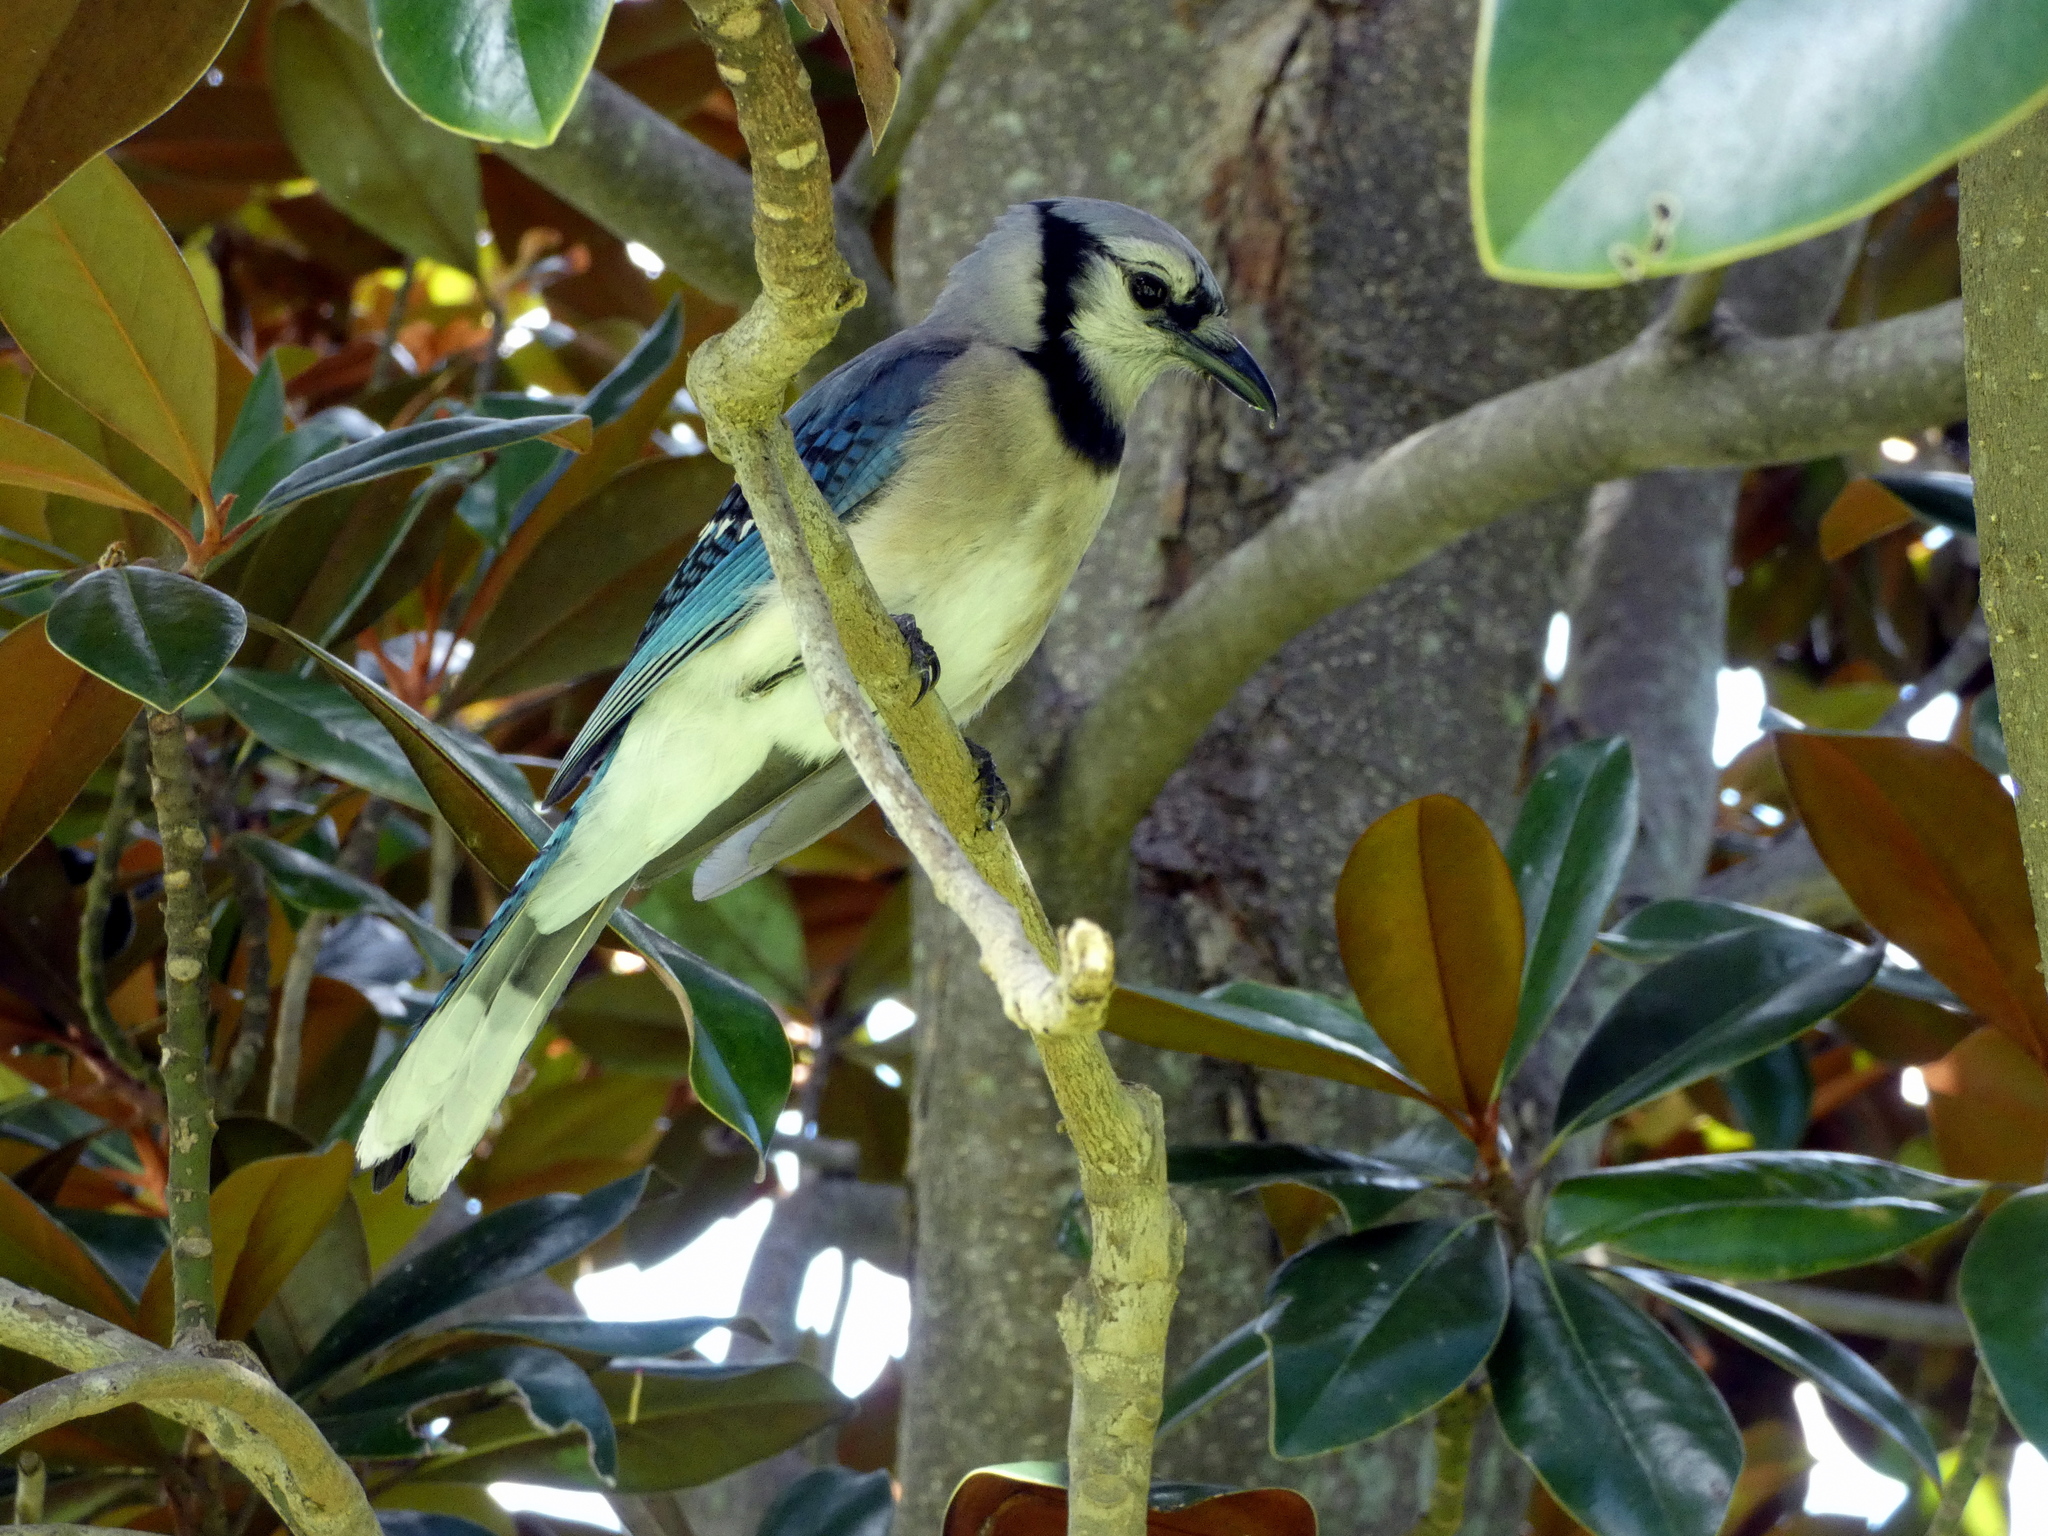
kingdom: Animalia
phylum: Chordata
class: Aves
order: Passeriformes
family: Corvidae
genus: Cyanocitta
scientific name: Cyanocitta cristata
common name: Blue jay
